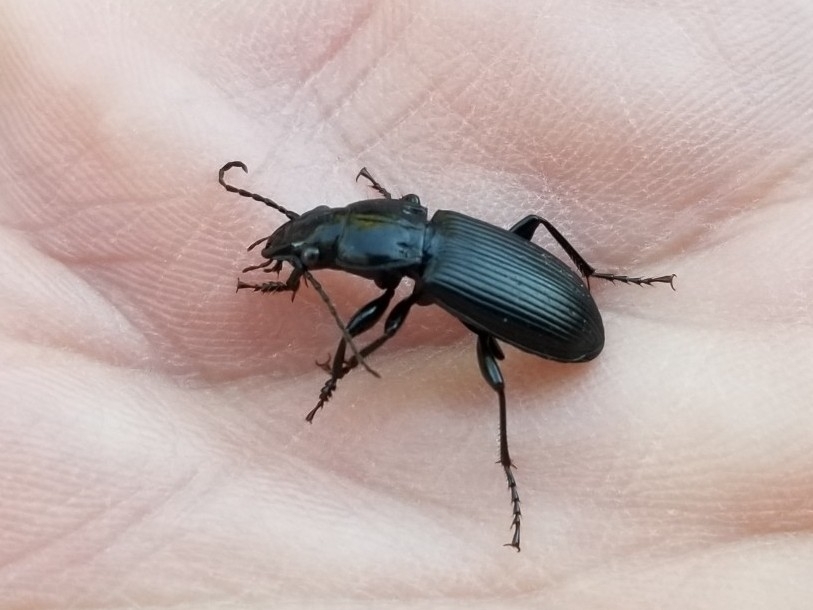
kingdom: Animalia
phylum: Arthropoda
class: Insecta
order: Coleoptera
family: Carabidae
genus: Pterostichus
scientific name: Pterostichus melanarius
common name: European dark harp ground beetle
